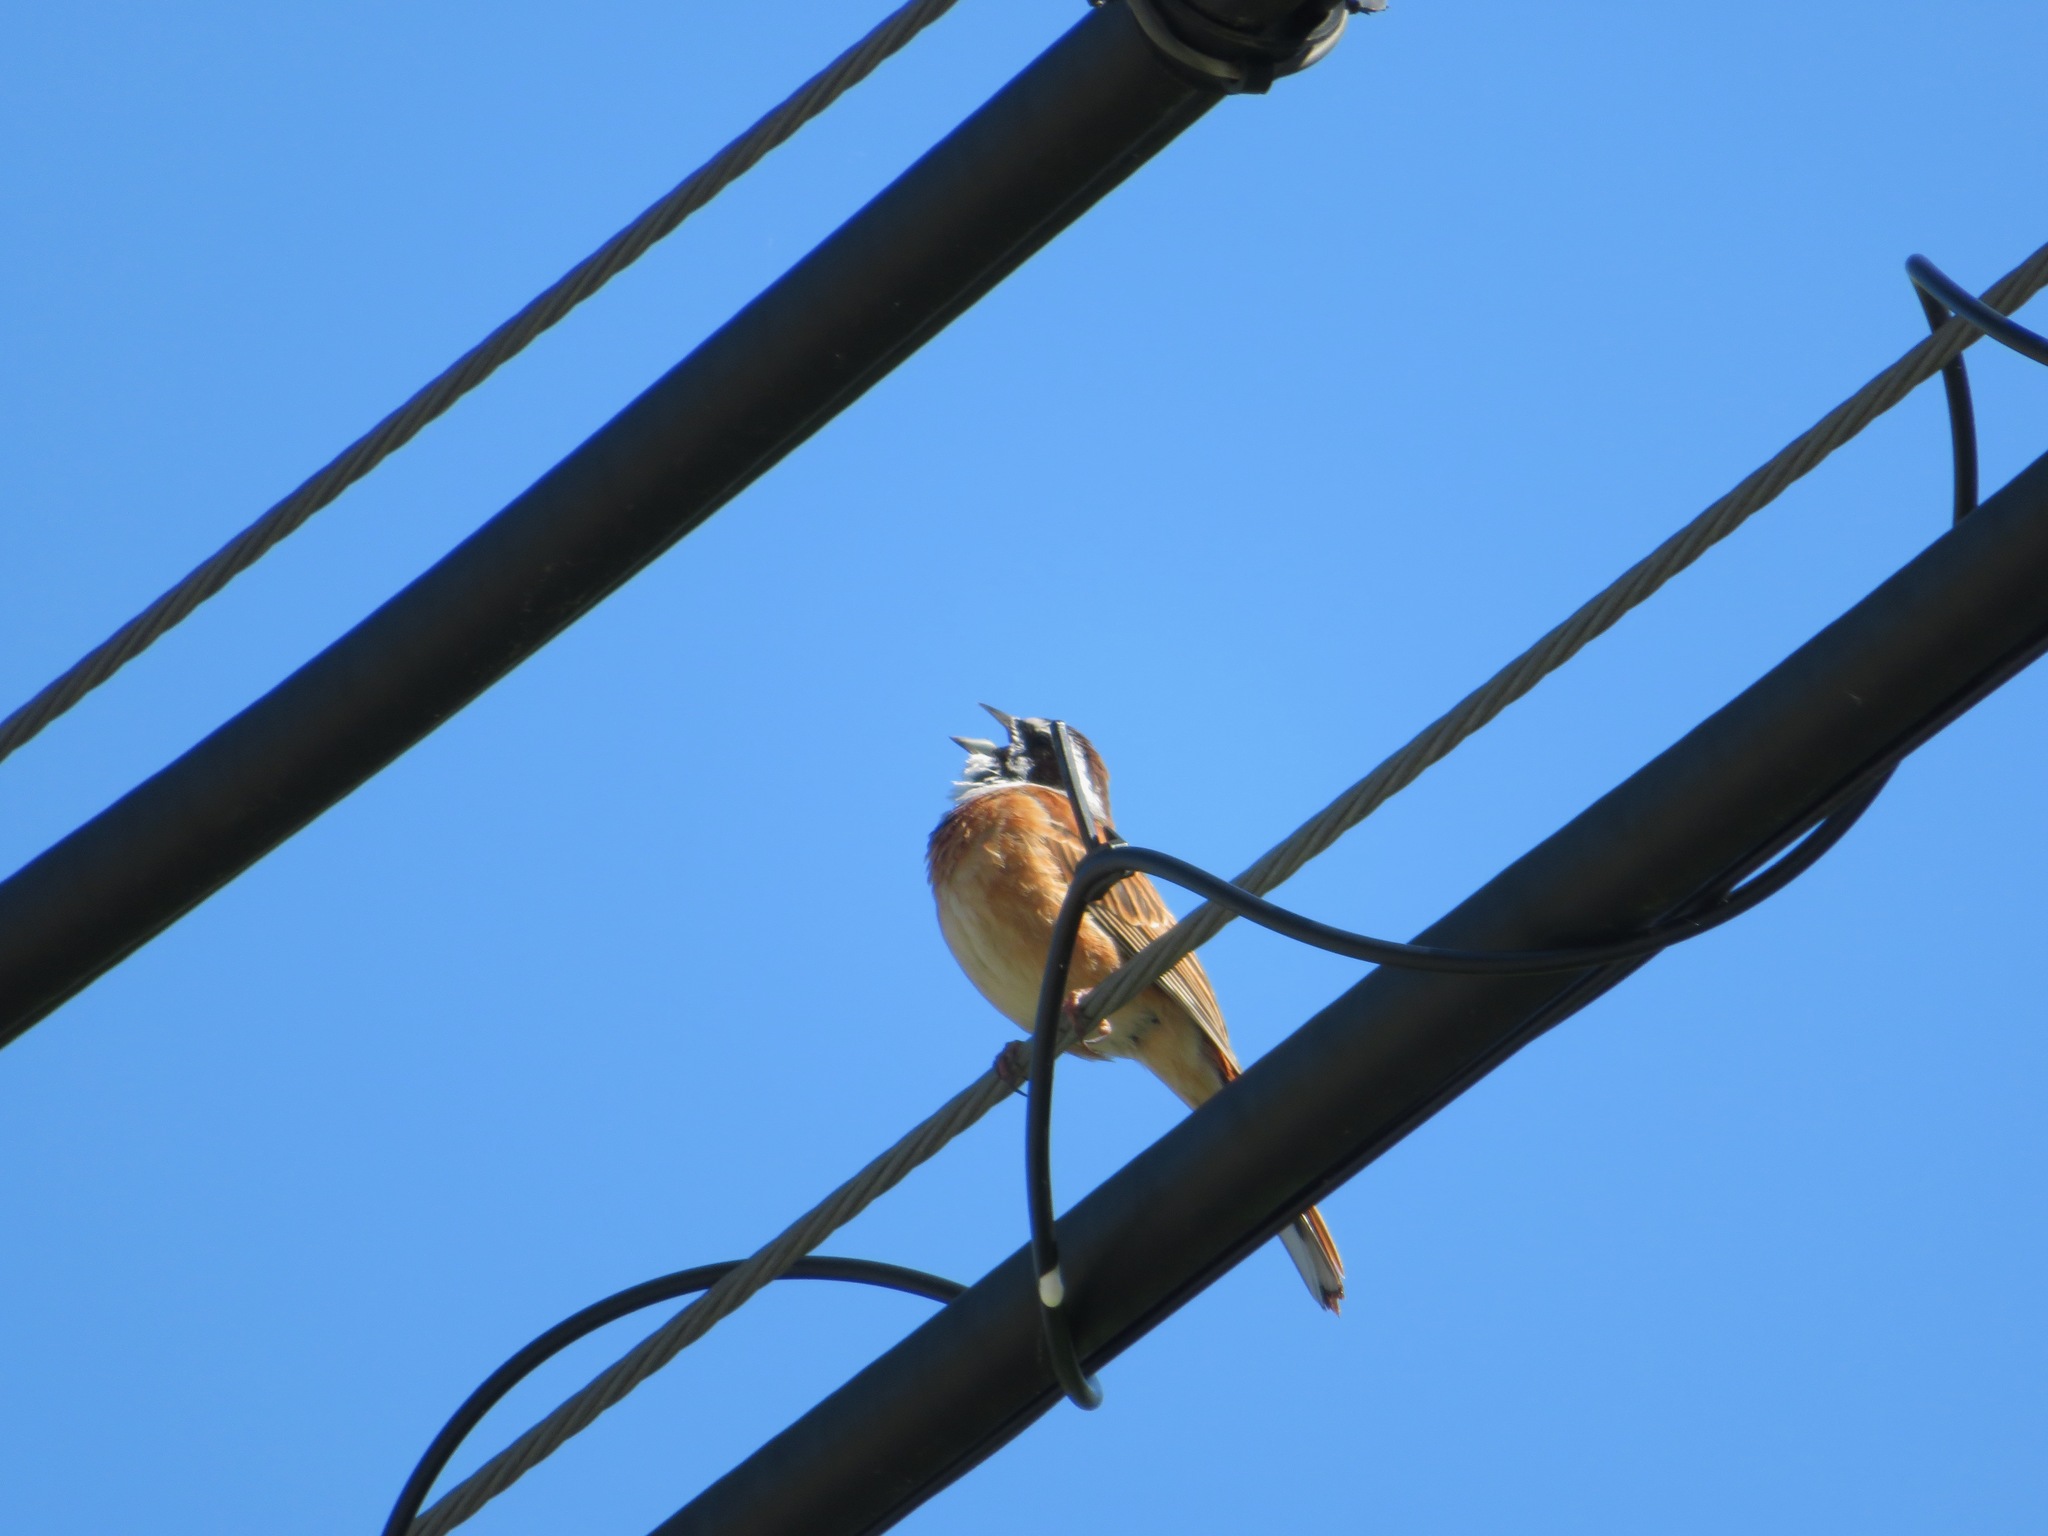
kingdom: Animalia
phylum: Chordata
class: Aves
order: Passeriformes
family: Emberizidae
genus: Emberiza
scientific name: Emberiza cioides
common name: Meadow bunting
